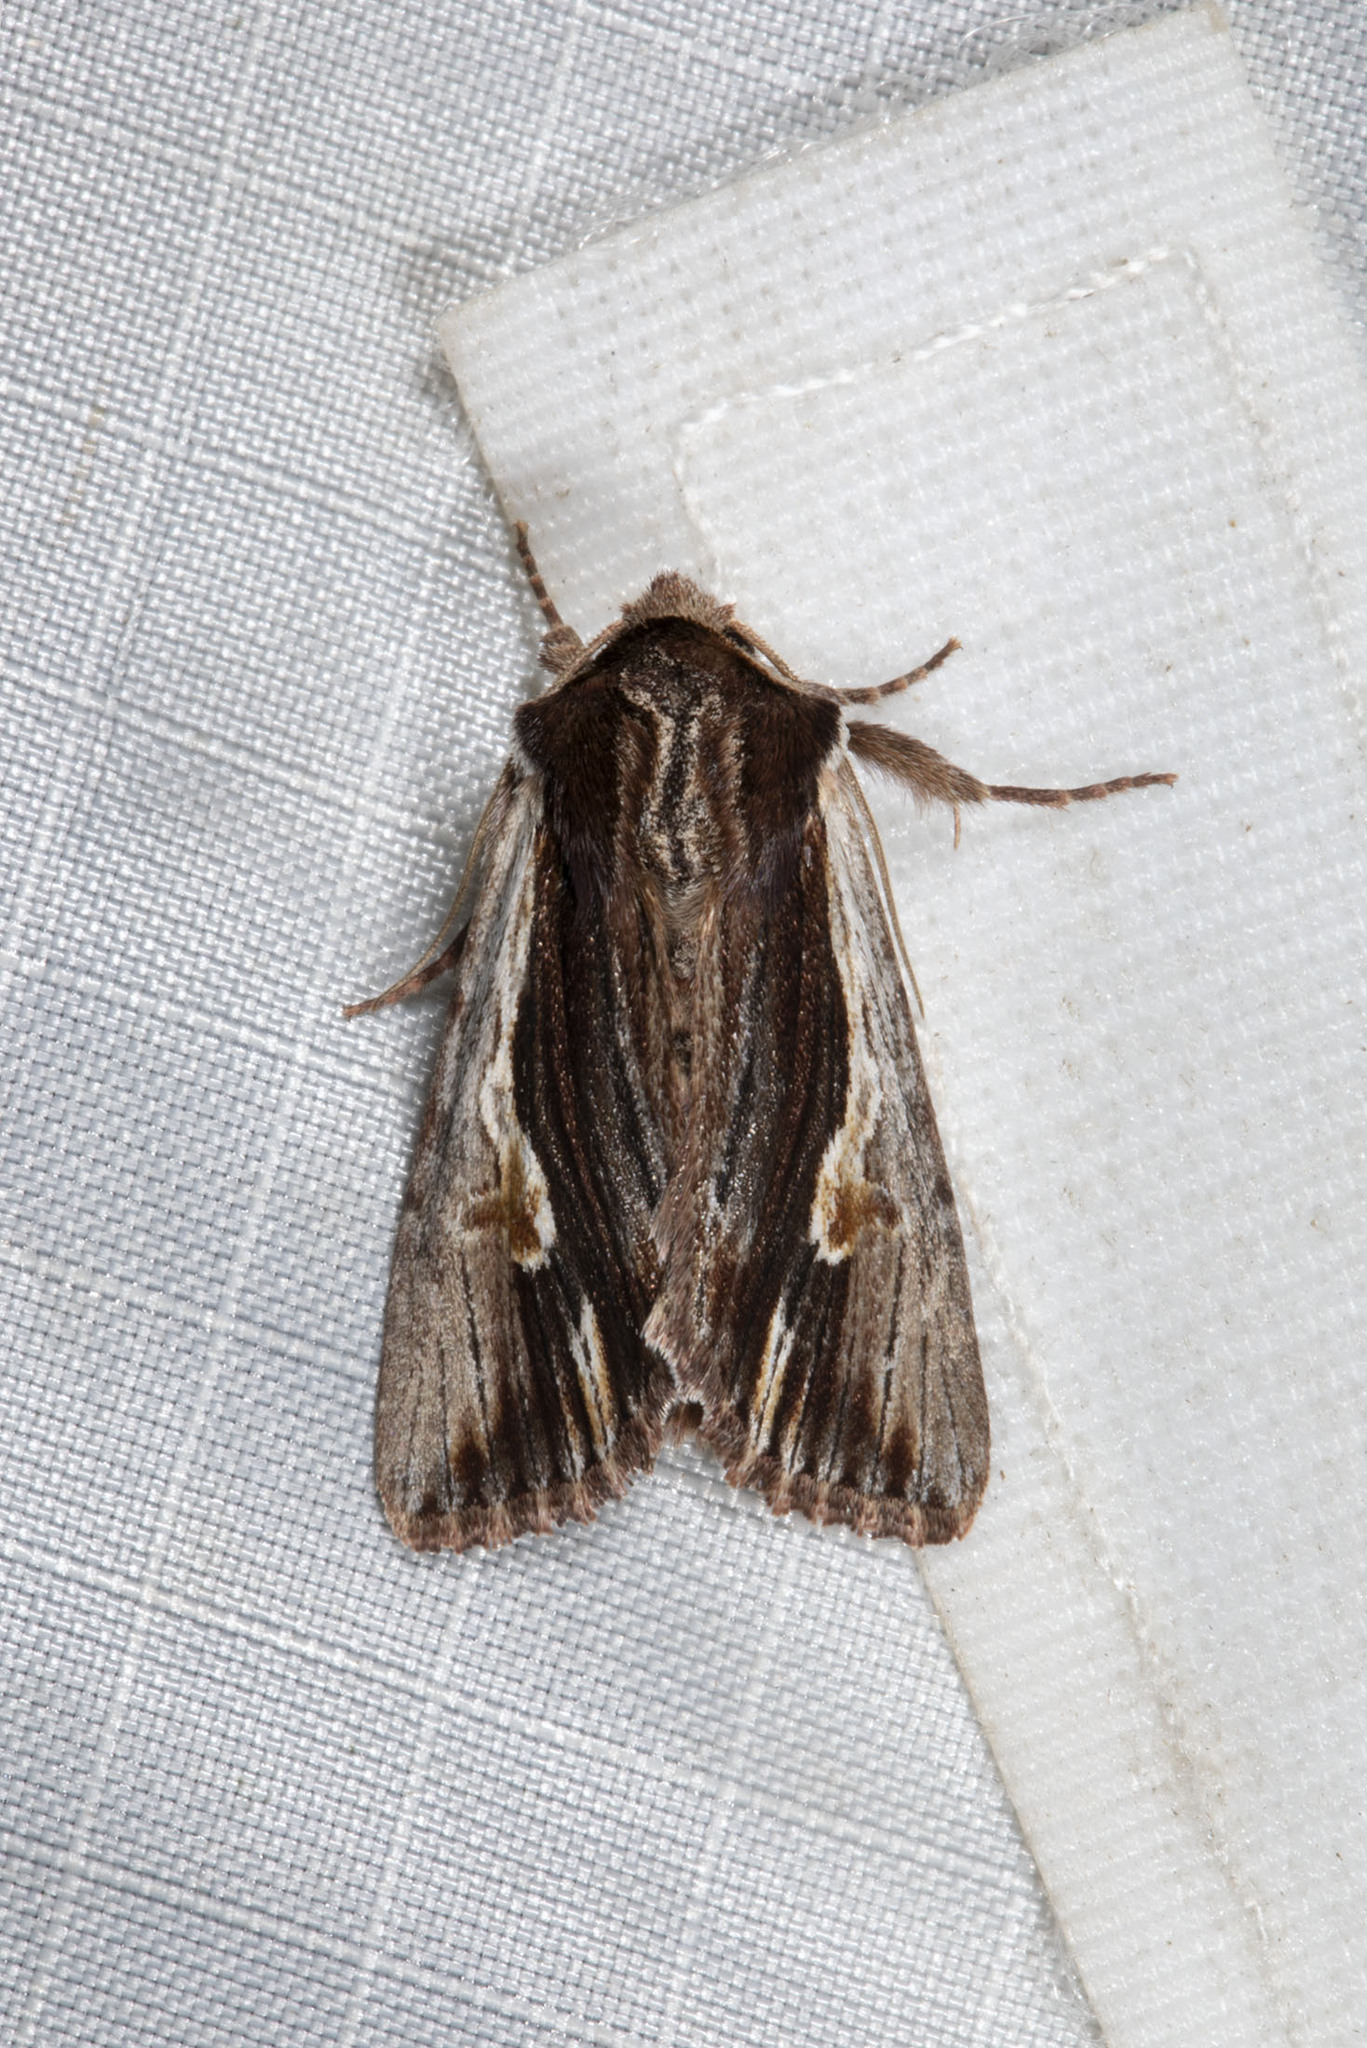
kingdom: Animalia
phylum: Arthropoda
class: Insecta
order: Lepidoptera
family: Noctuidae
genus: Achatia
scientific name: Achatia evicta
